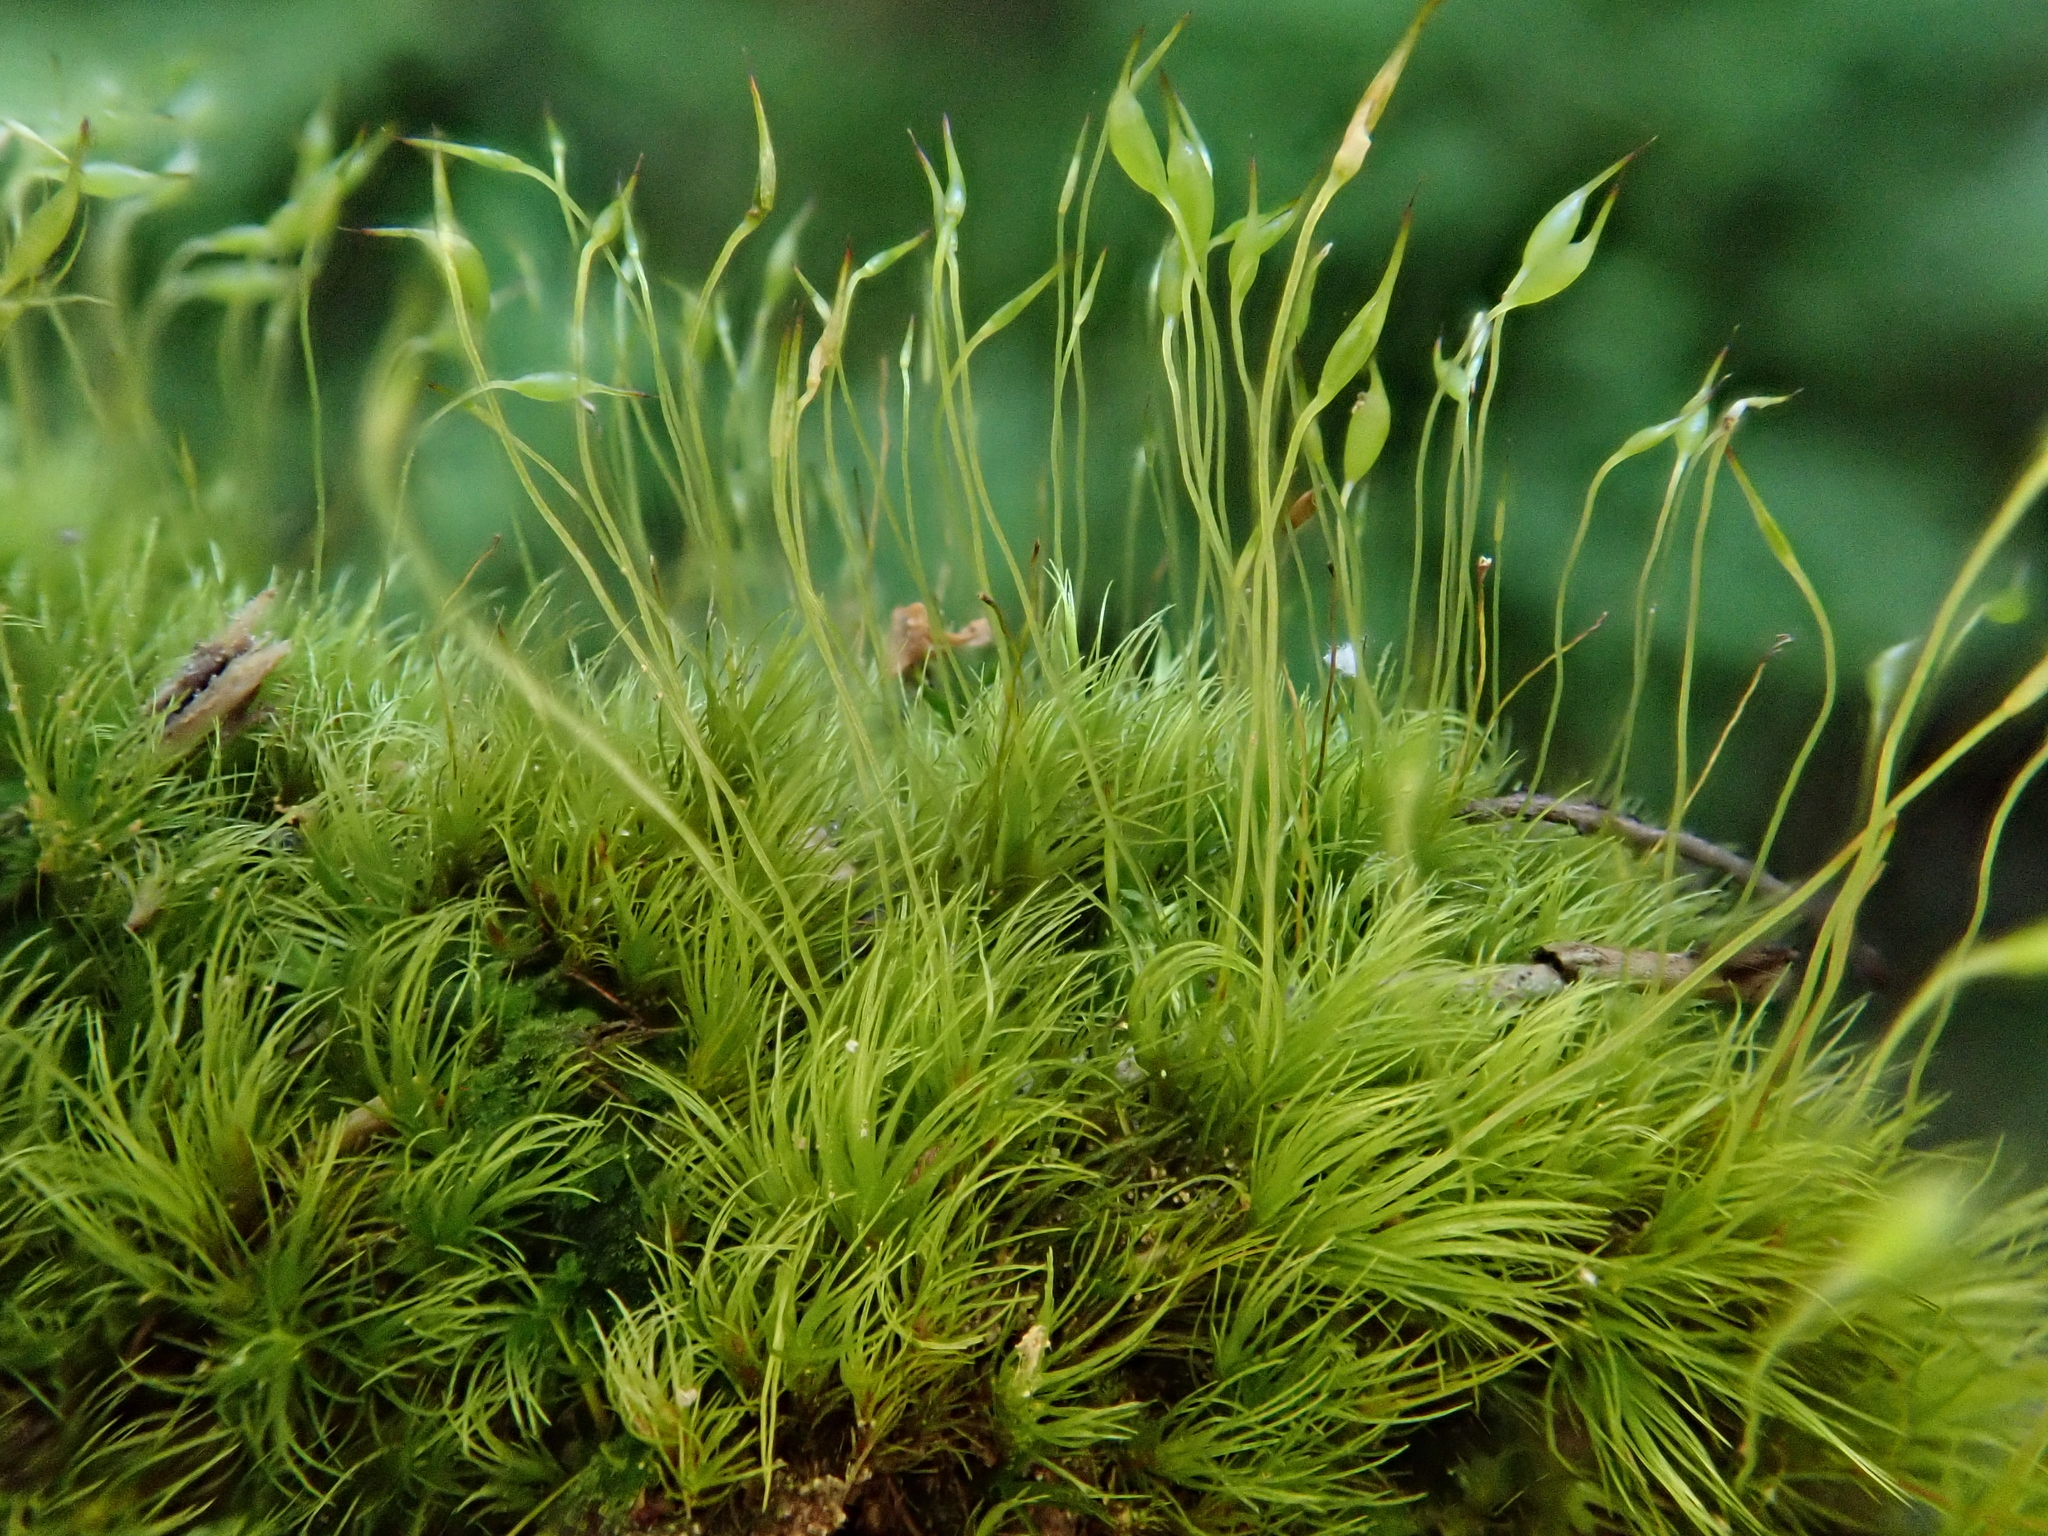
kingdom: Plantae
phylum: Bryophyta
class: Bryopsida
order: Dicranales
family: Dicranaceae
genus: Orthodicranum
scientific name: Orthodicranum montanum
